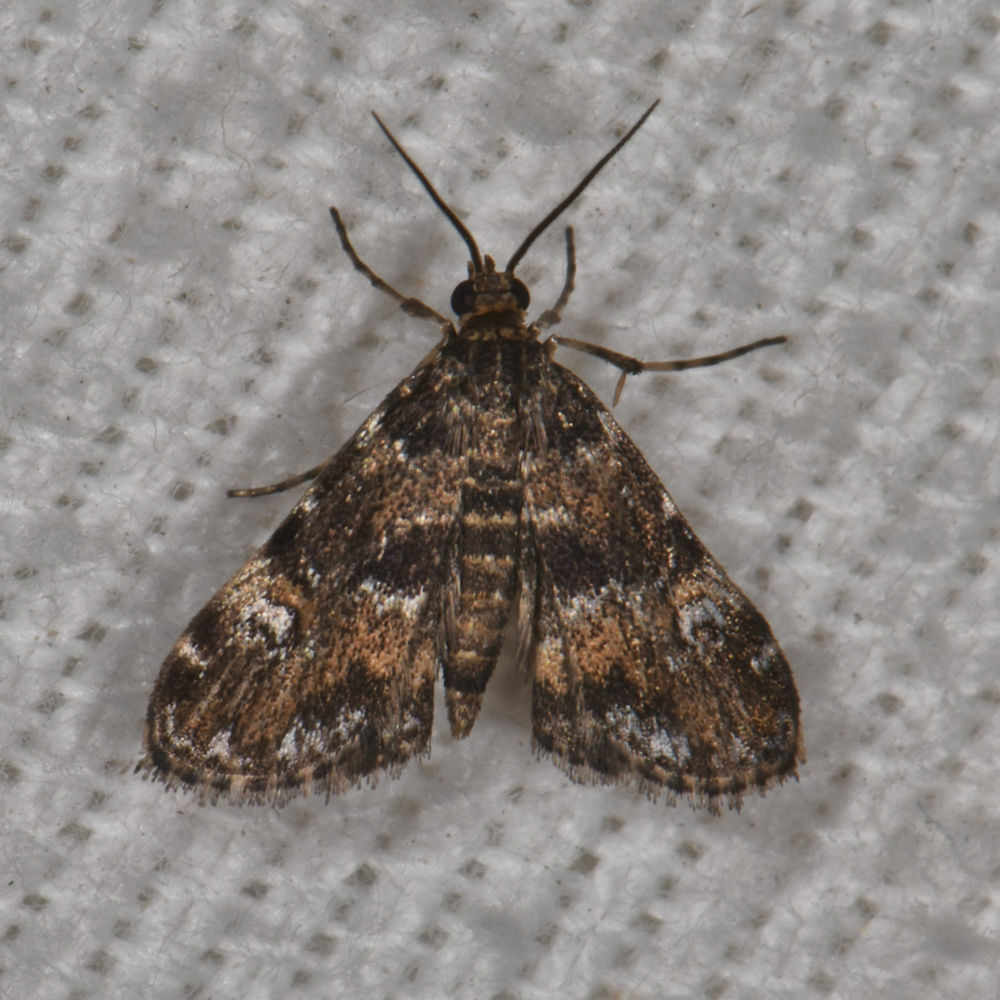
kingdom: Animalia
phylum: Arthropoda
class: Insecta
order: Lepidoptera
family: Crambidae
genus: Elophila
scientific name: Elophila obliteralis
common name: Waterlily leafcutter moth
